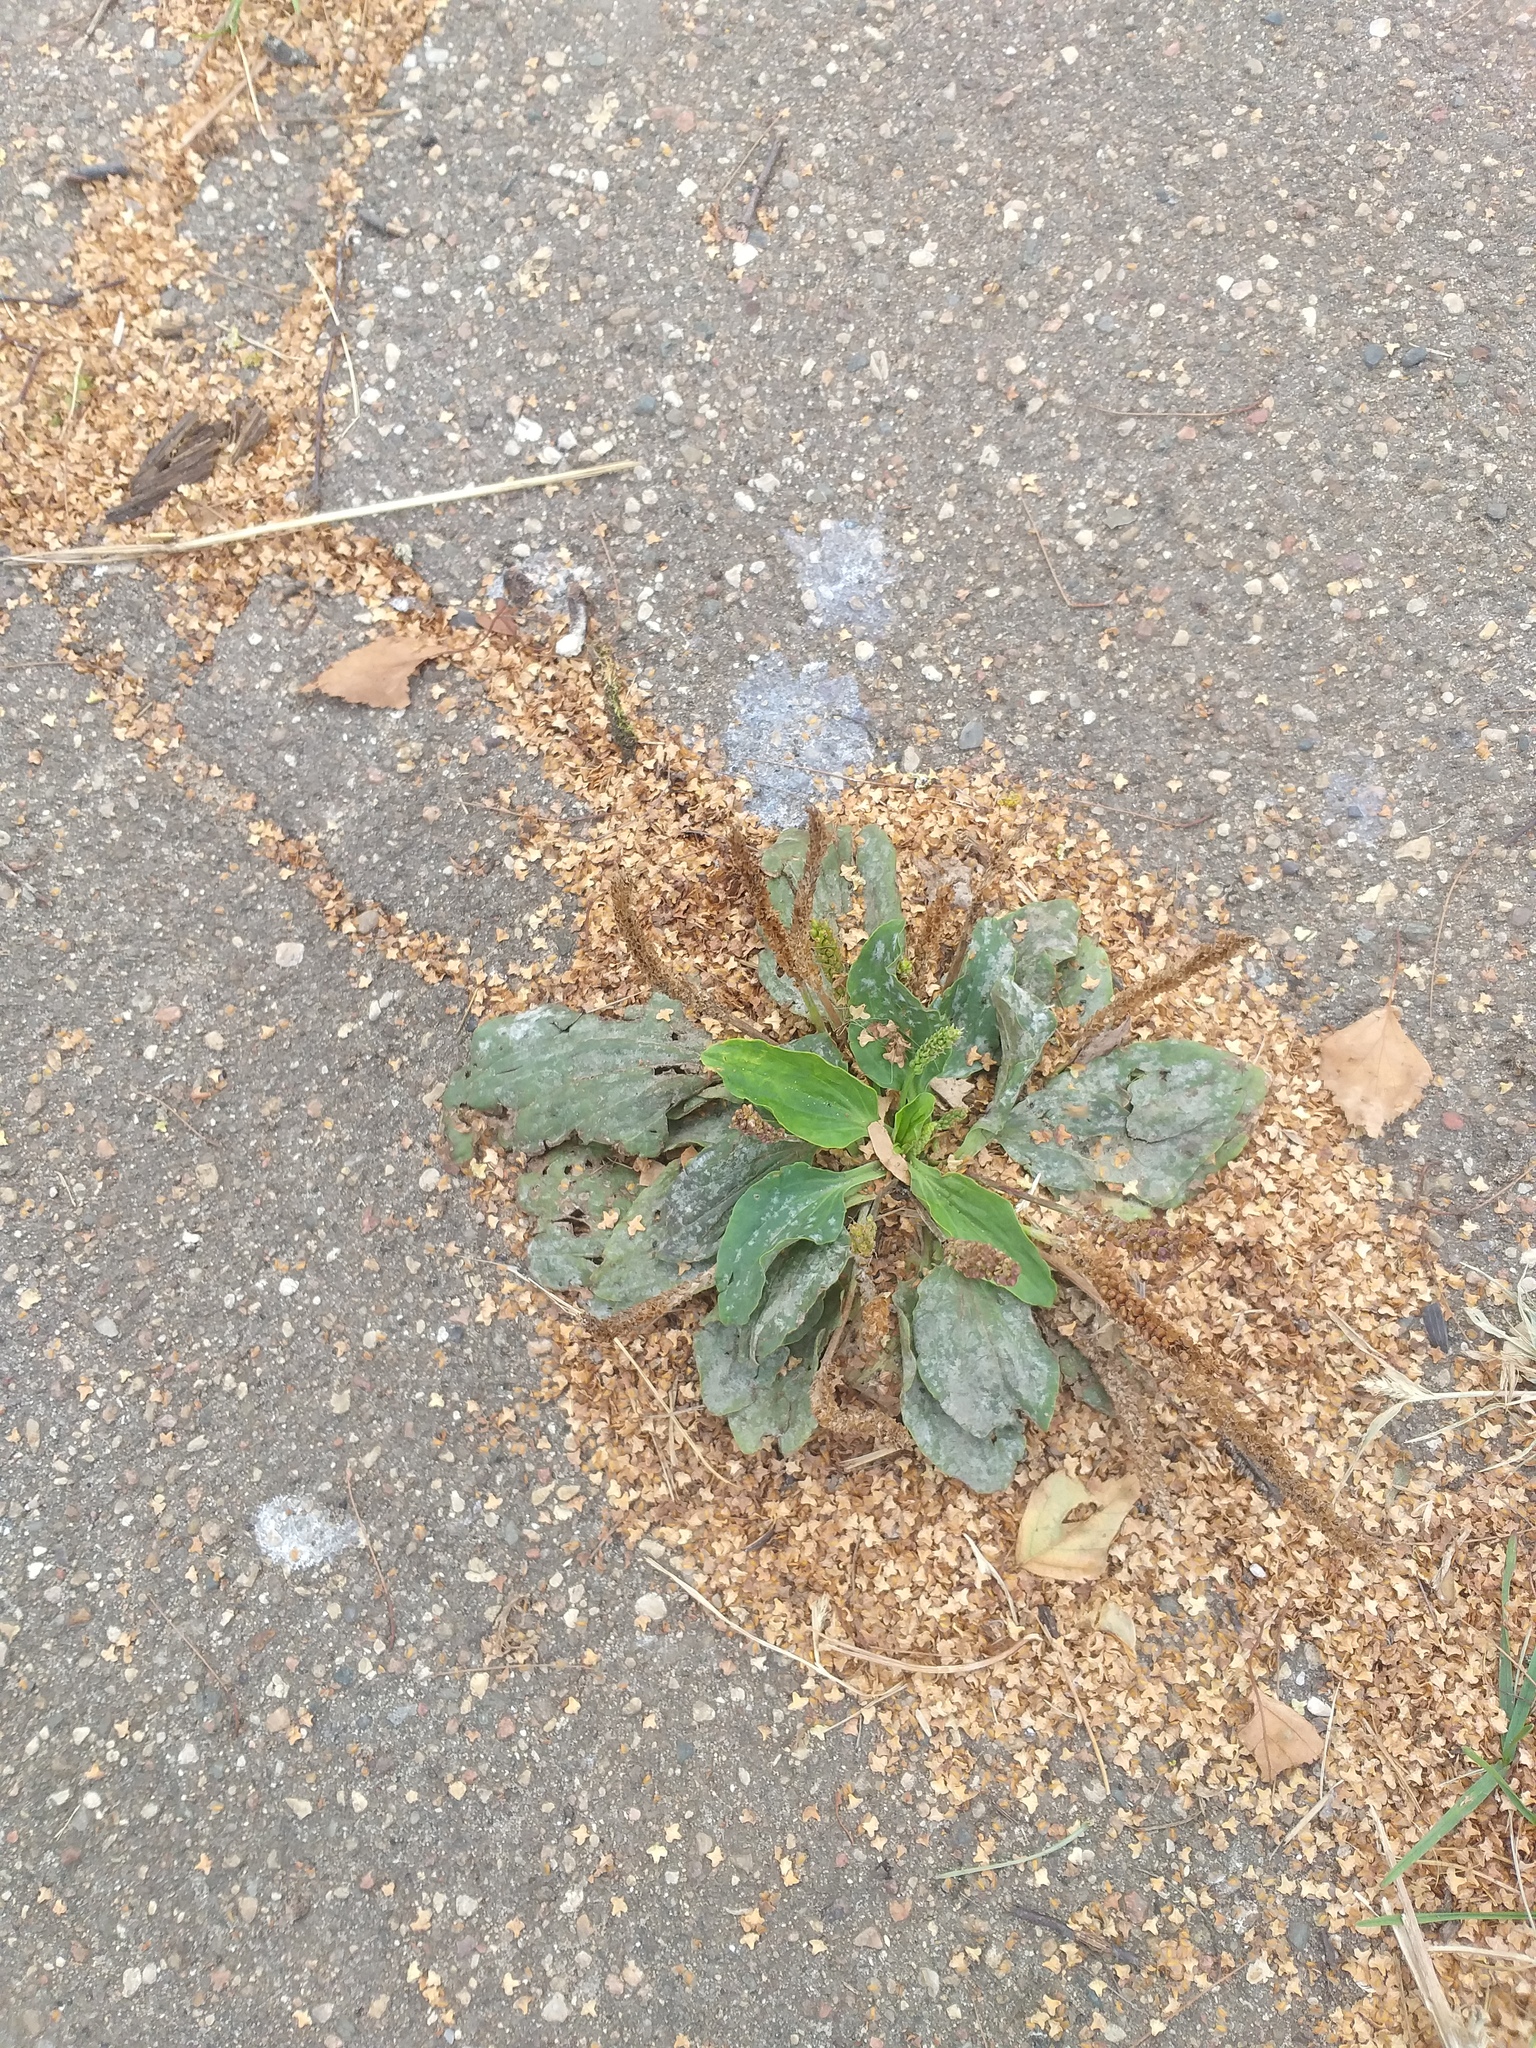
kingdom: Plantae
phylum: Tracheophyta
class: Magnoliopsida
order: Lamiales
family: Plantaginaceae
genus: Plantago
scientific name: Plantago major
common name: Common plantain
